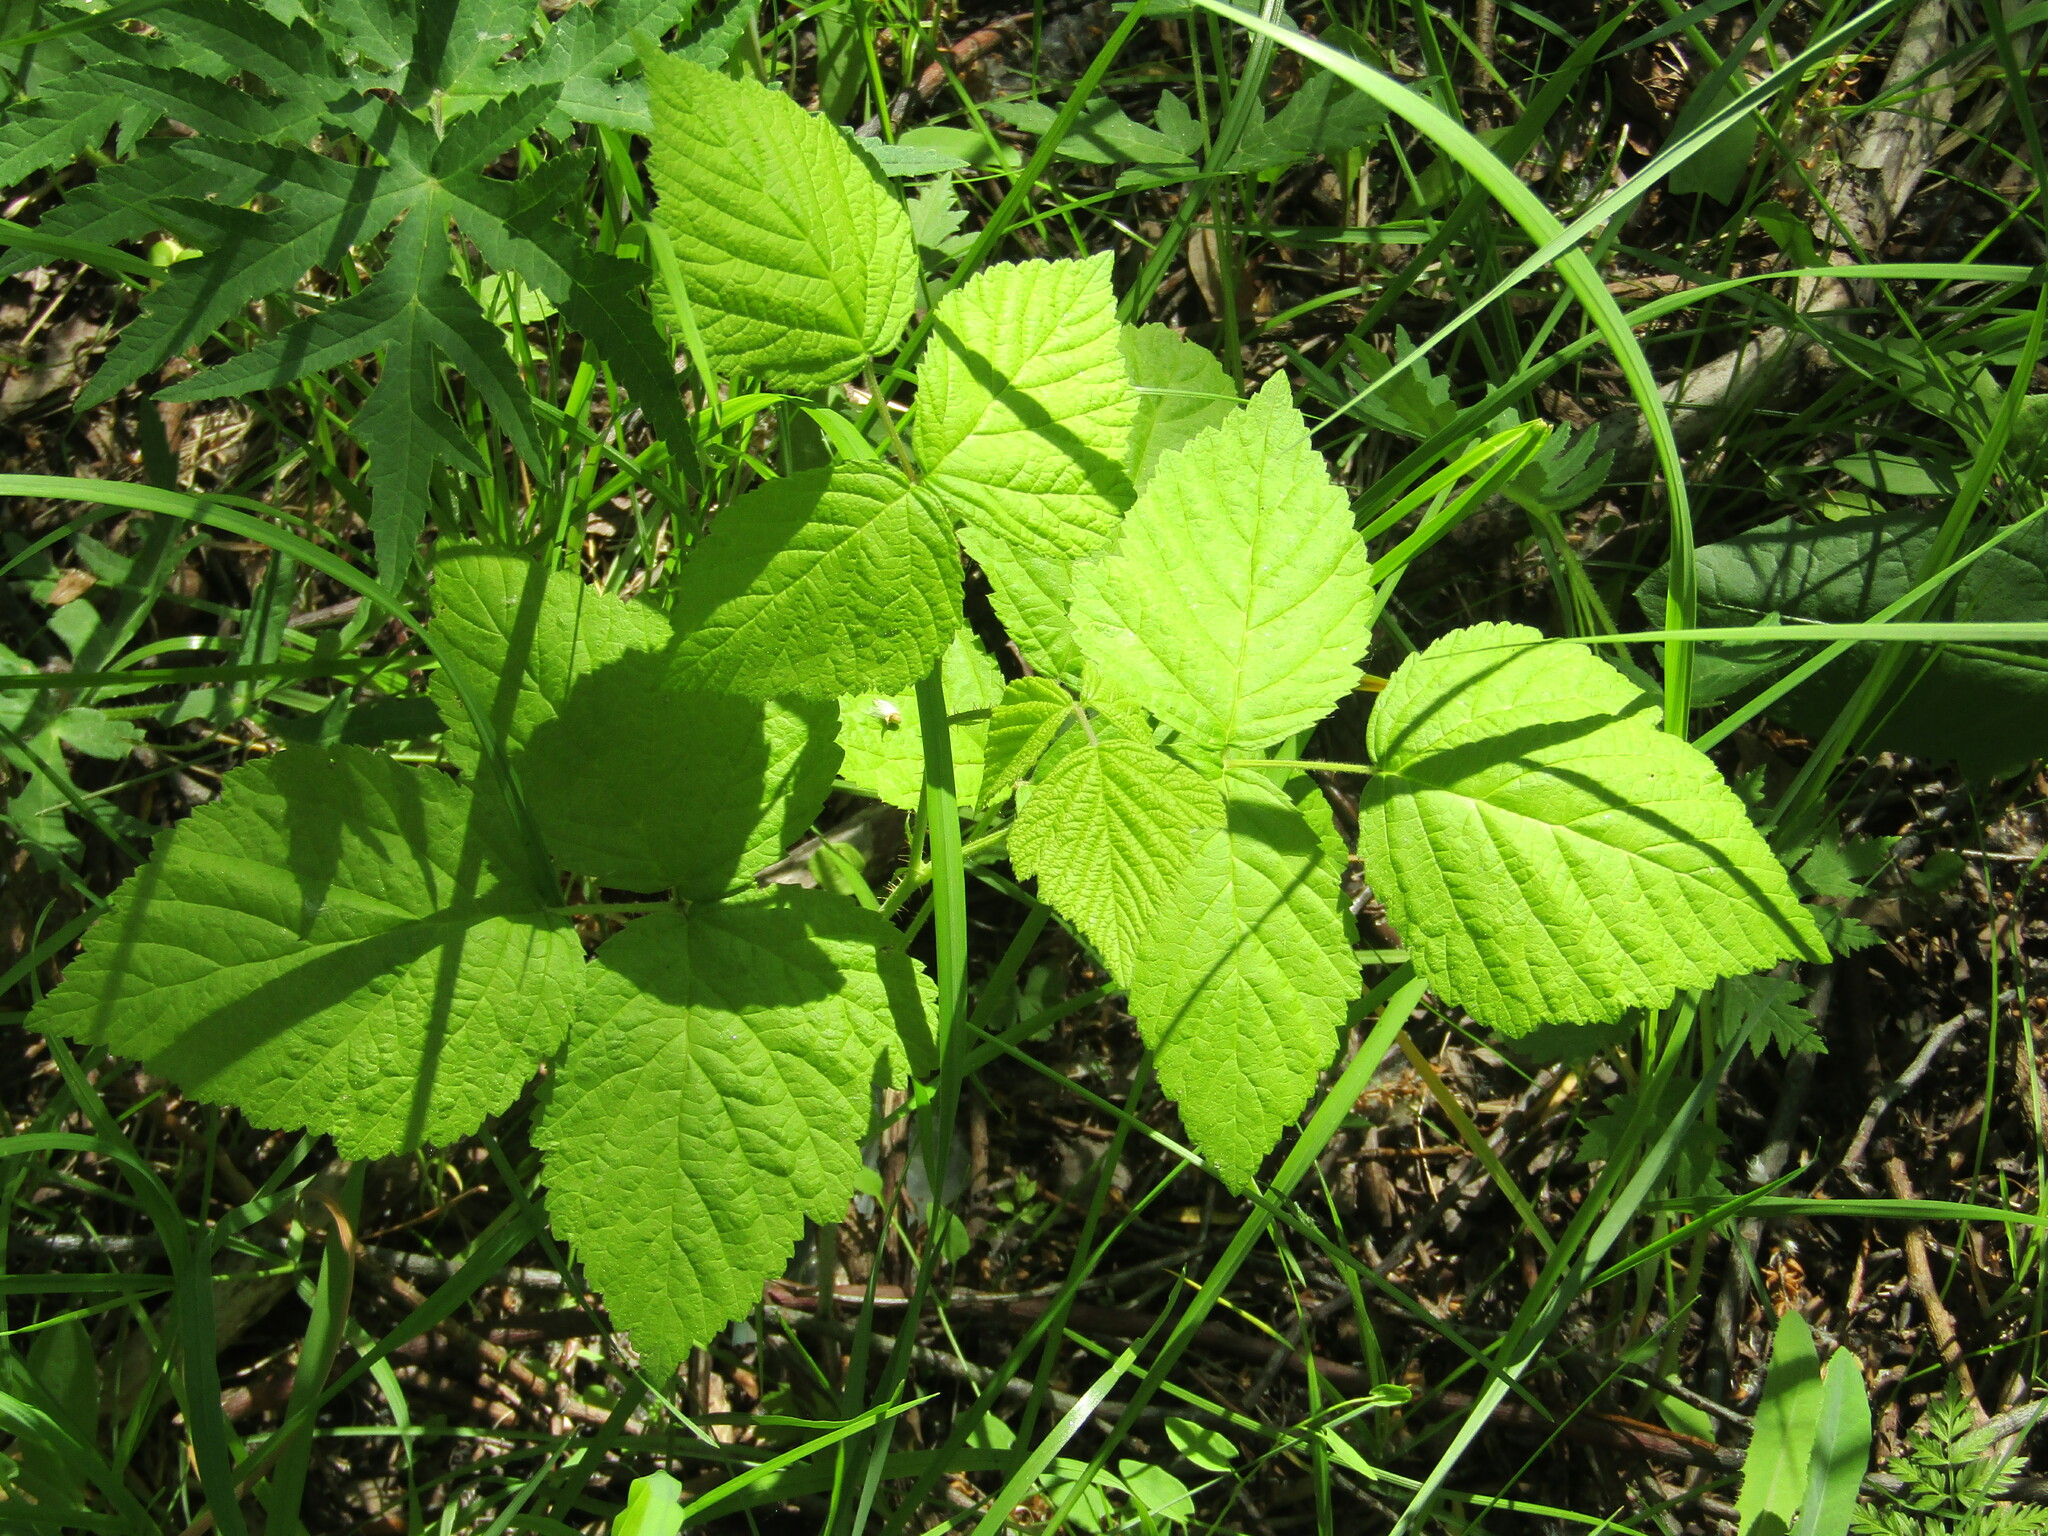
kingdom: Plantae
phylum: Tracheophyta
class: Magnoliopsida
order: Rosales
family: Rosaceae
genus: Rubus
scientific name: Rubus caesius
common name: Dewberry
